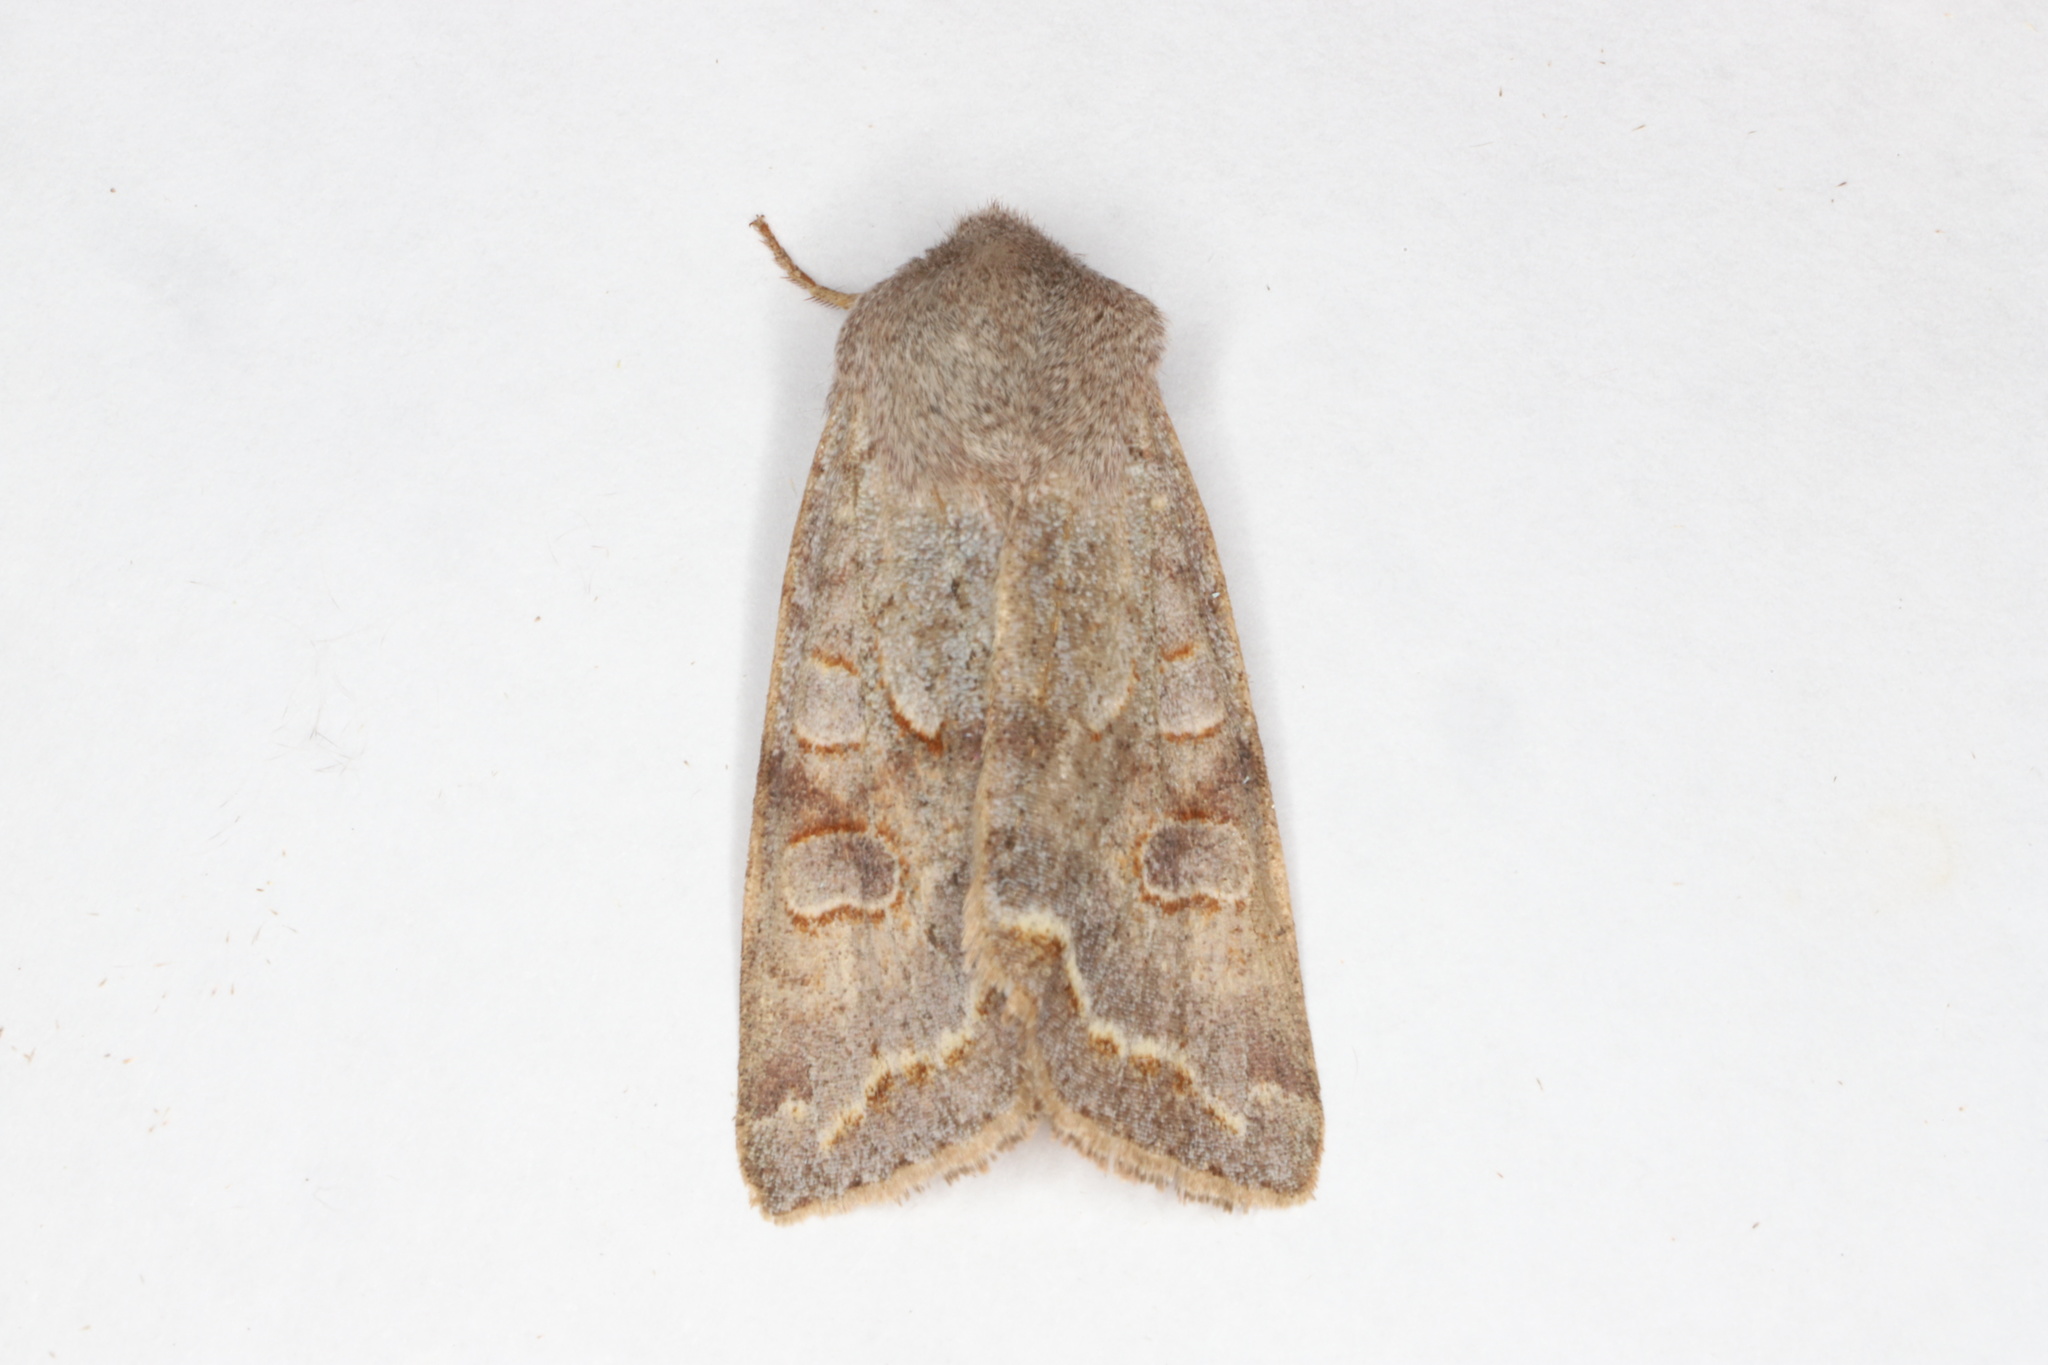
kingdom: Animalia
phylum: Arthropoda
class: Insecta
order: Lepidoptera
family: Noctuidae
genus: Orthosia
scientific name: Orthosia revicta
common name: Rusty whitesided caterpillar
